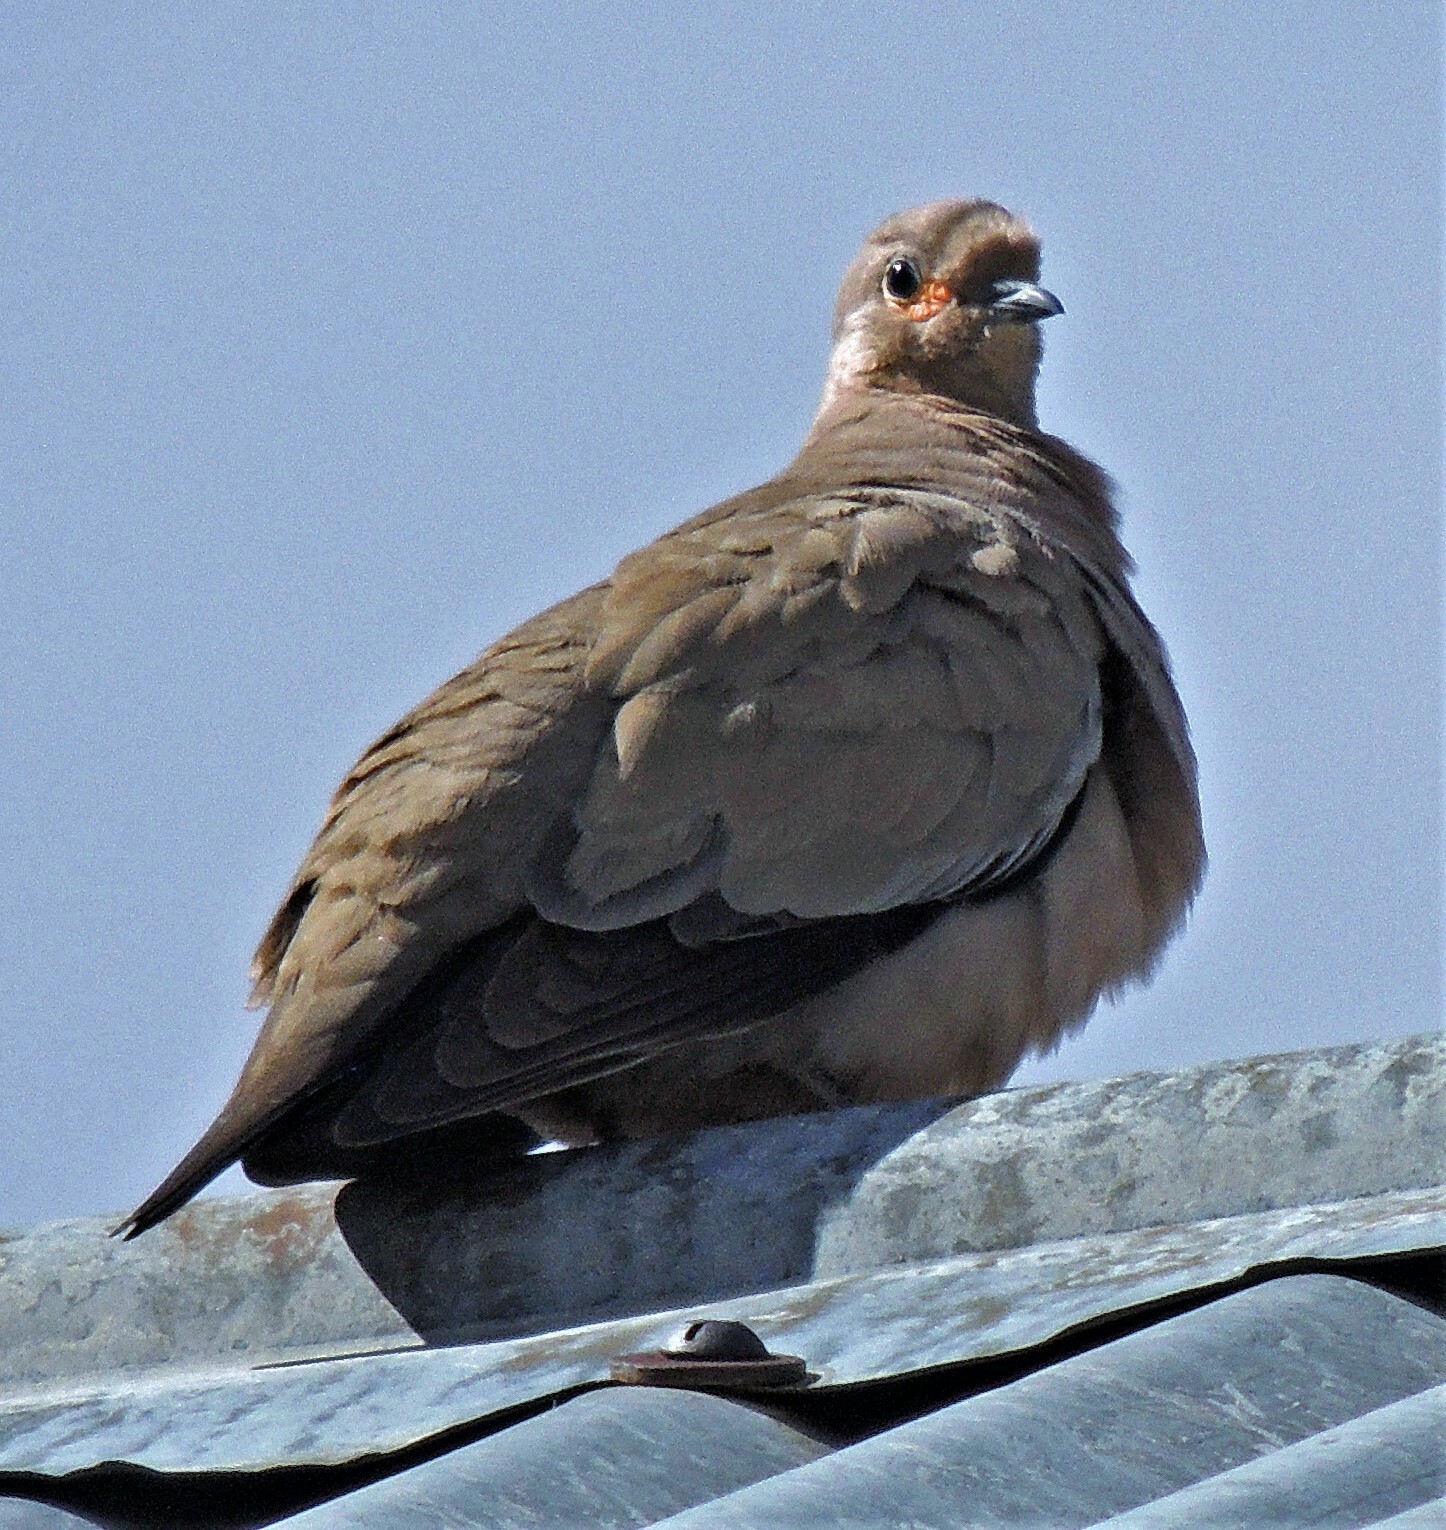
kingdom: Animalia
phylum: Chordata
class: Aves
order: Columbiformes
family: Columbidae
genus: Metriopelia
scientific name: Metriopelia melanoptera
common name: Black-winged ground dove
